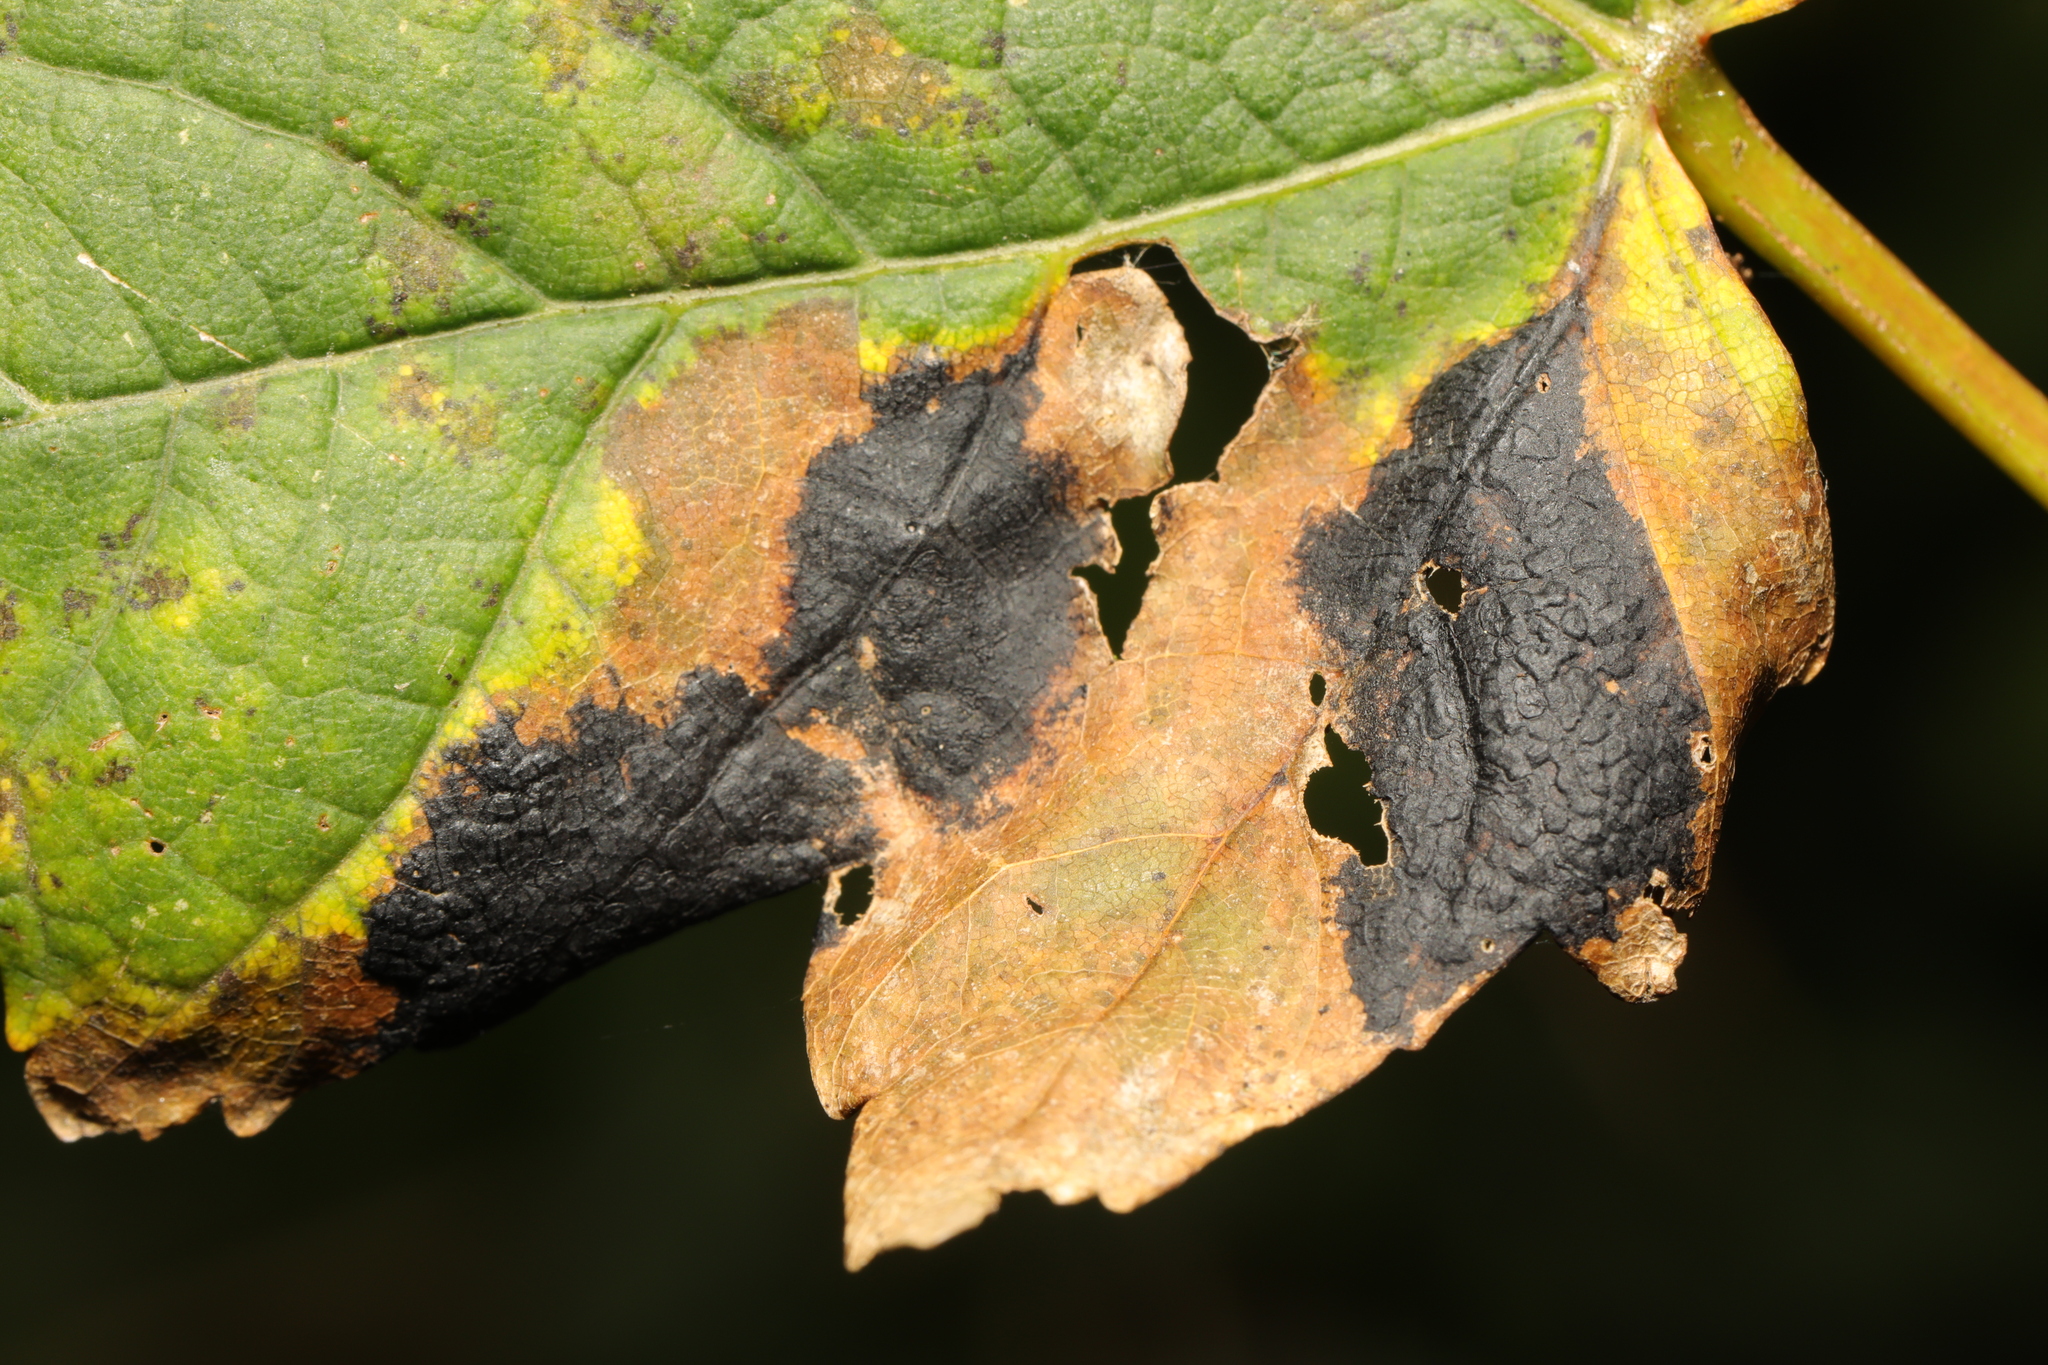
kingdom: Fungi
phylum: Ascomycota
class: Leotiomycetes
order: Rhytismatales
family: Rhytismataceae
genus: Rhytisma
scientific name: Rhytisma acerinum
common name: European tar spot
